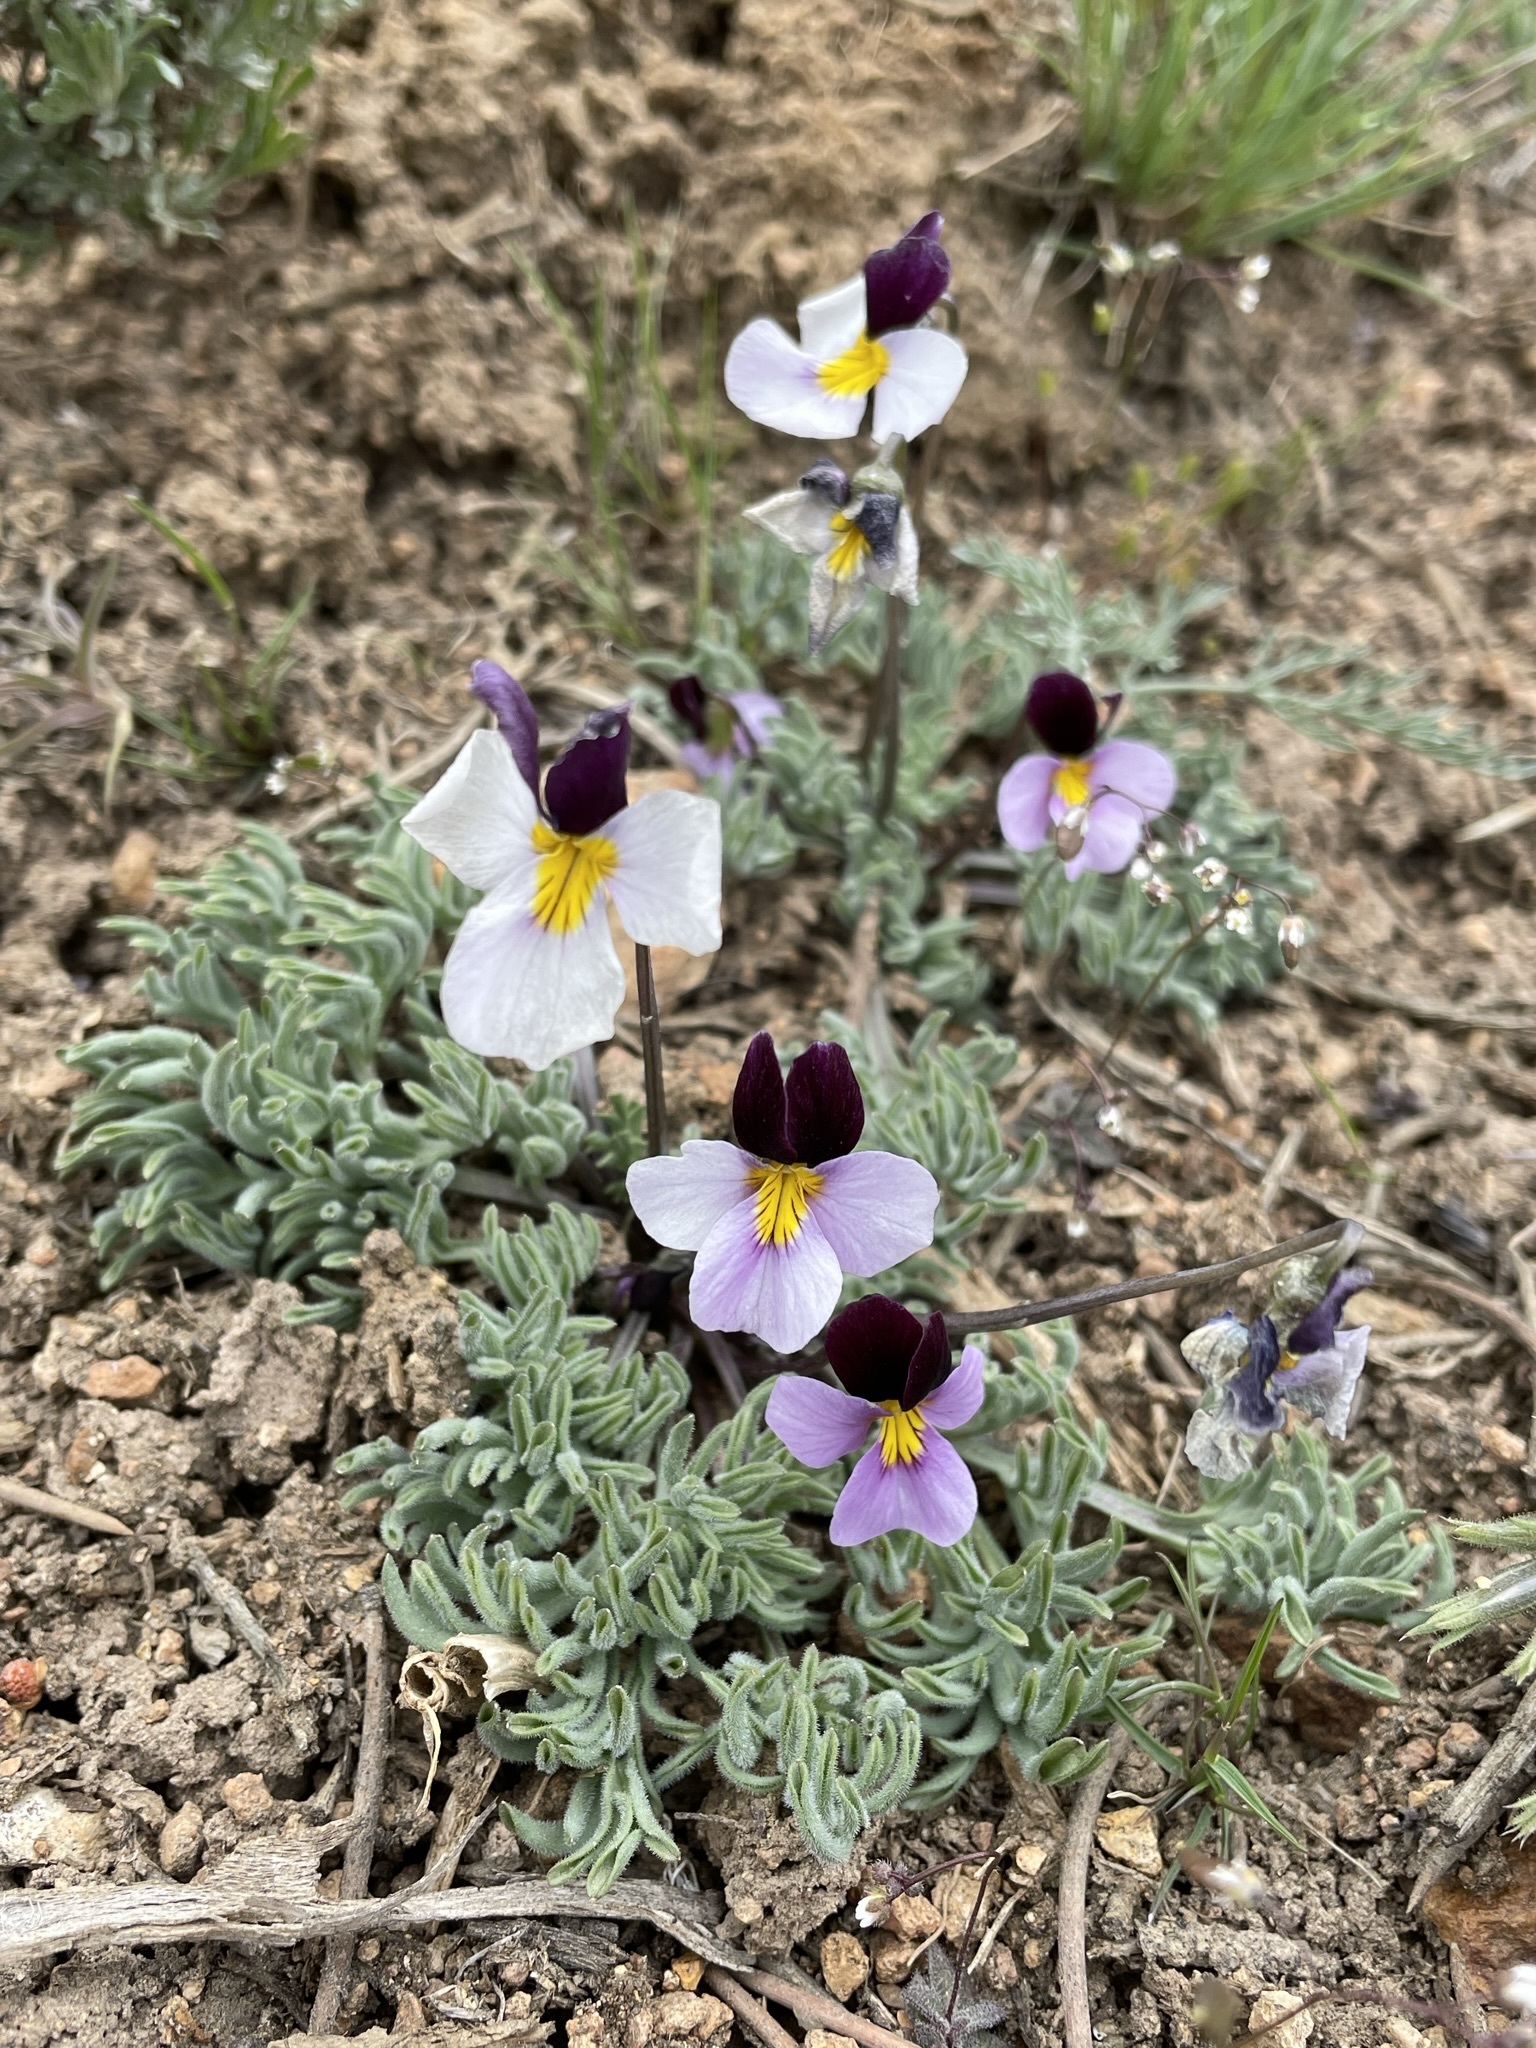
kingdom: Plantae
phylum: Tracheophyta
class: Magnoliopsida
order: Malpighiales
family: Violaceae
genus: Viola
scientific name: Viola beckwithii
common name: Beckwith's violet
